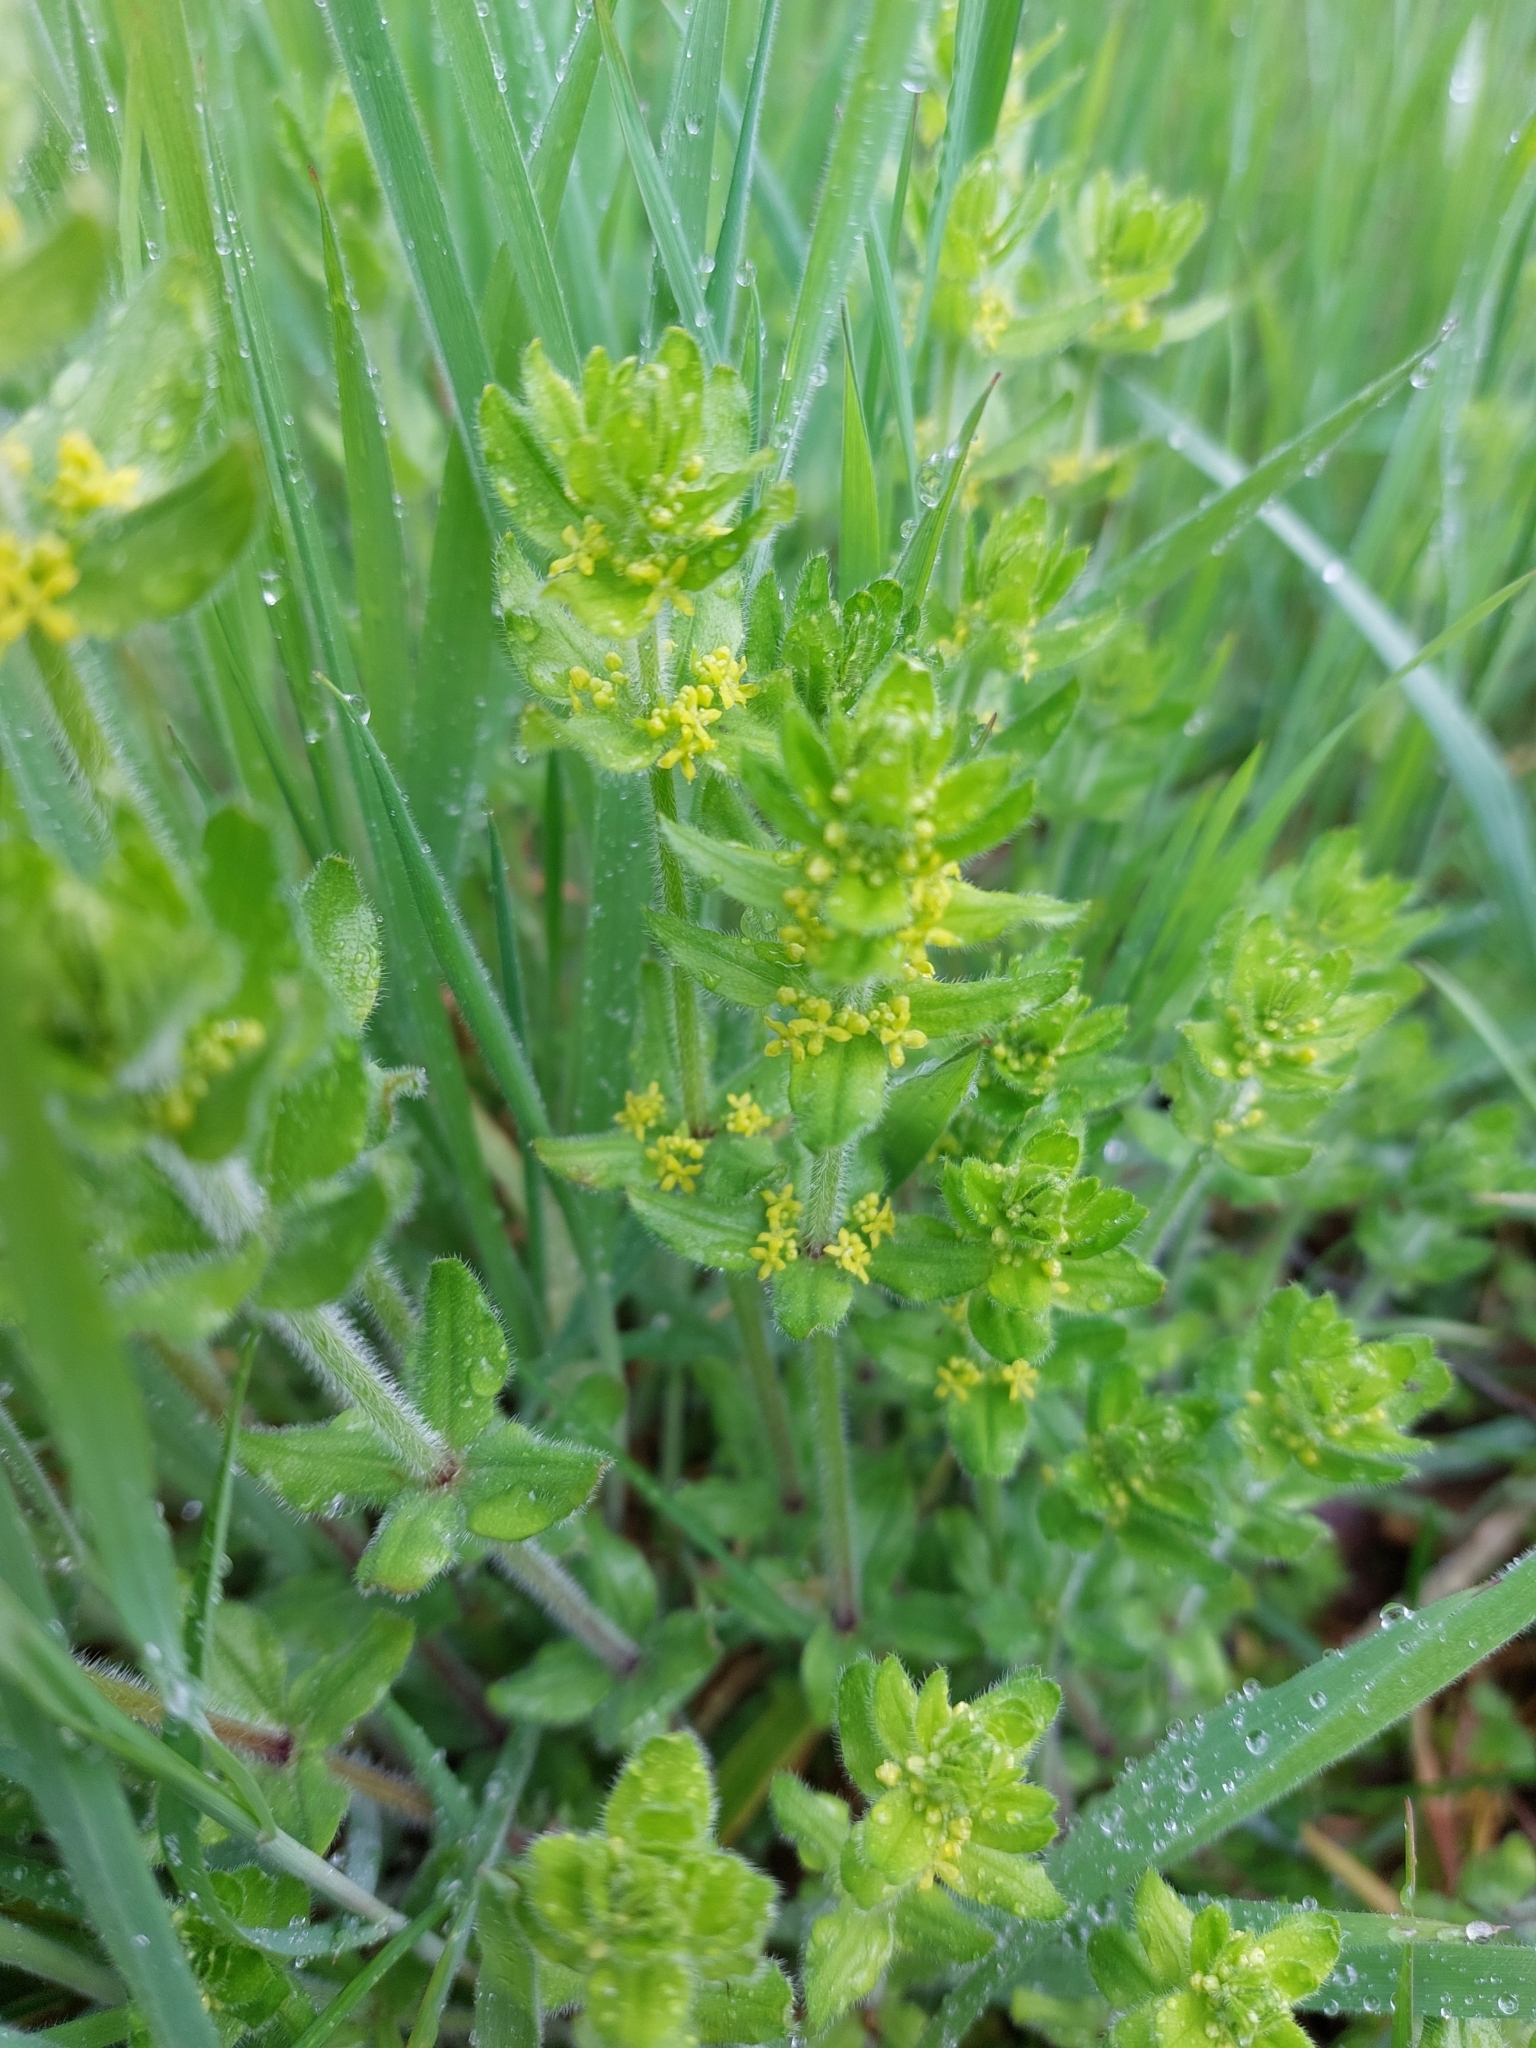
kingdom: Plantae
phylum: Tracheophyta
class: Magnoliopsida
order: Gentianales
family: Rubiaceae
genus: Cruciata
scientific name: Cruciata laevipes
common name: Crosswort
